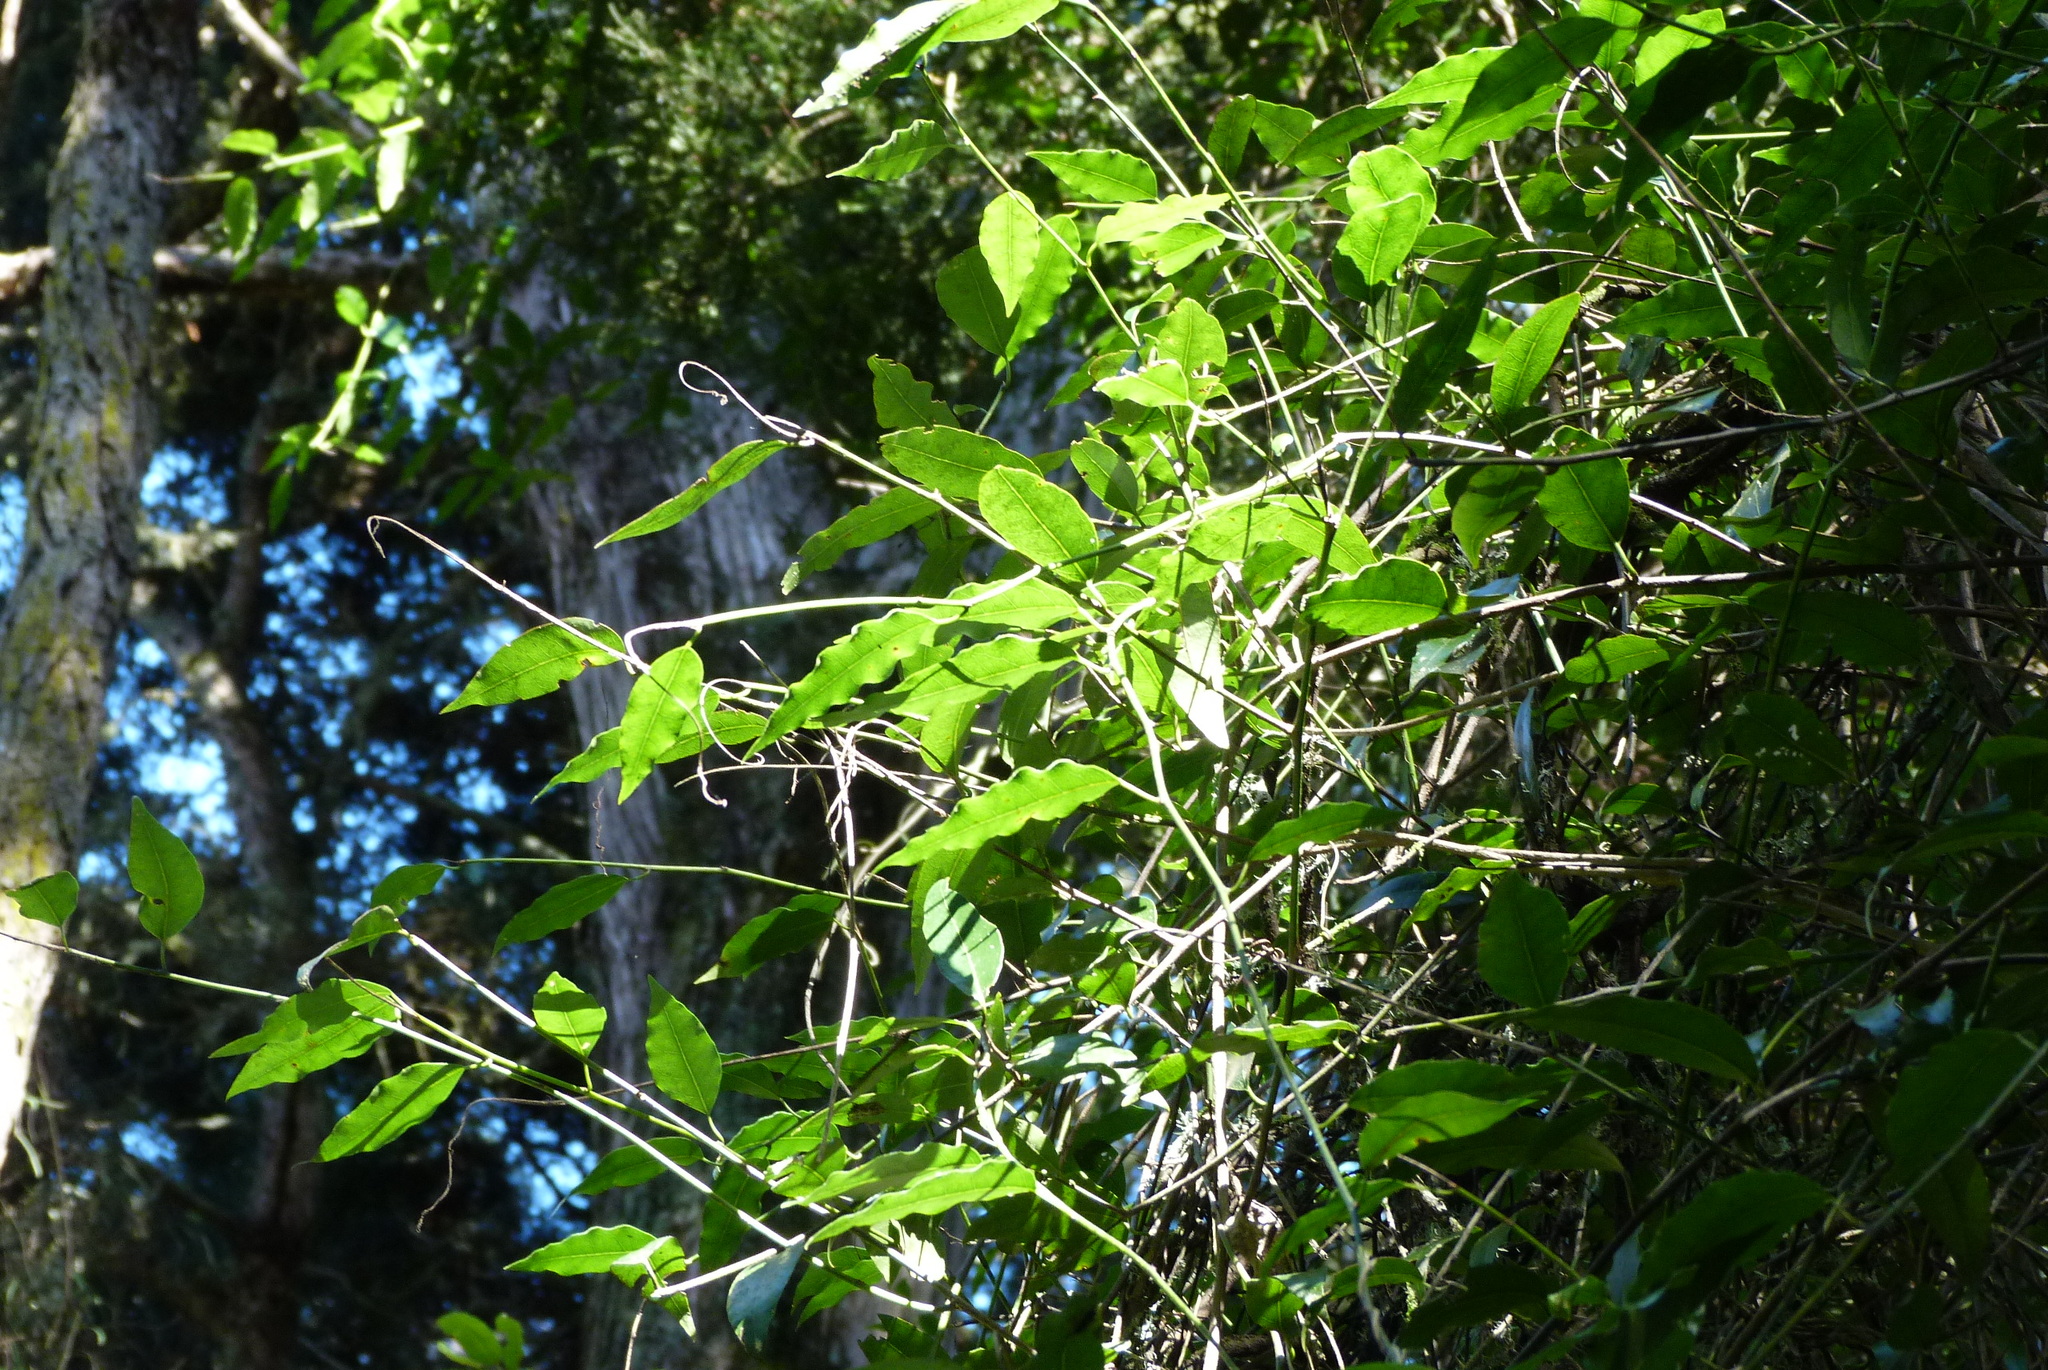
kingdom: Plantae
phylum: Tracheophyta
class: Magnoliopsida
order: Malpighiales
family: Passifloraceae
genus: Passiflora
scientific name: Passiflora tetrandra
